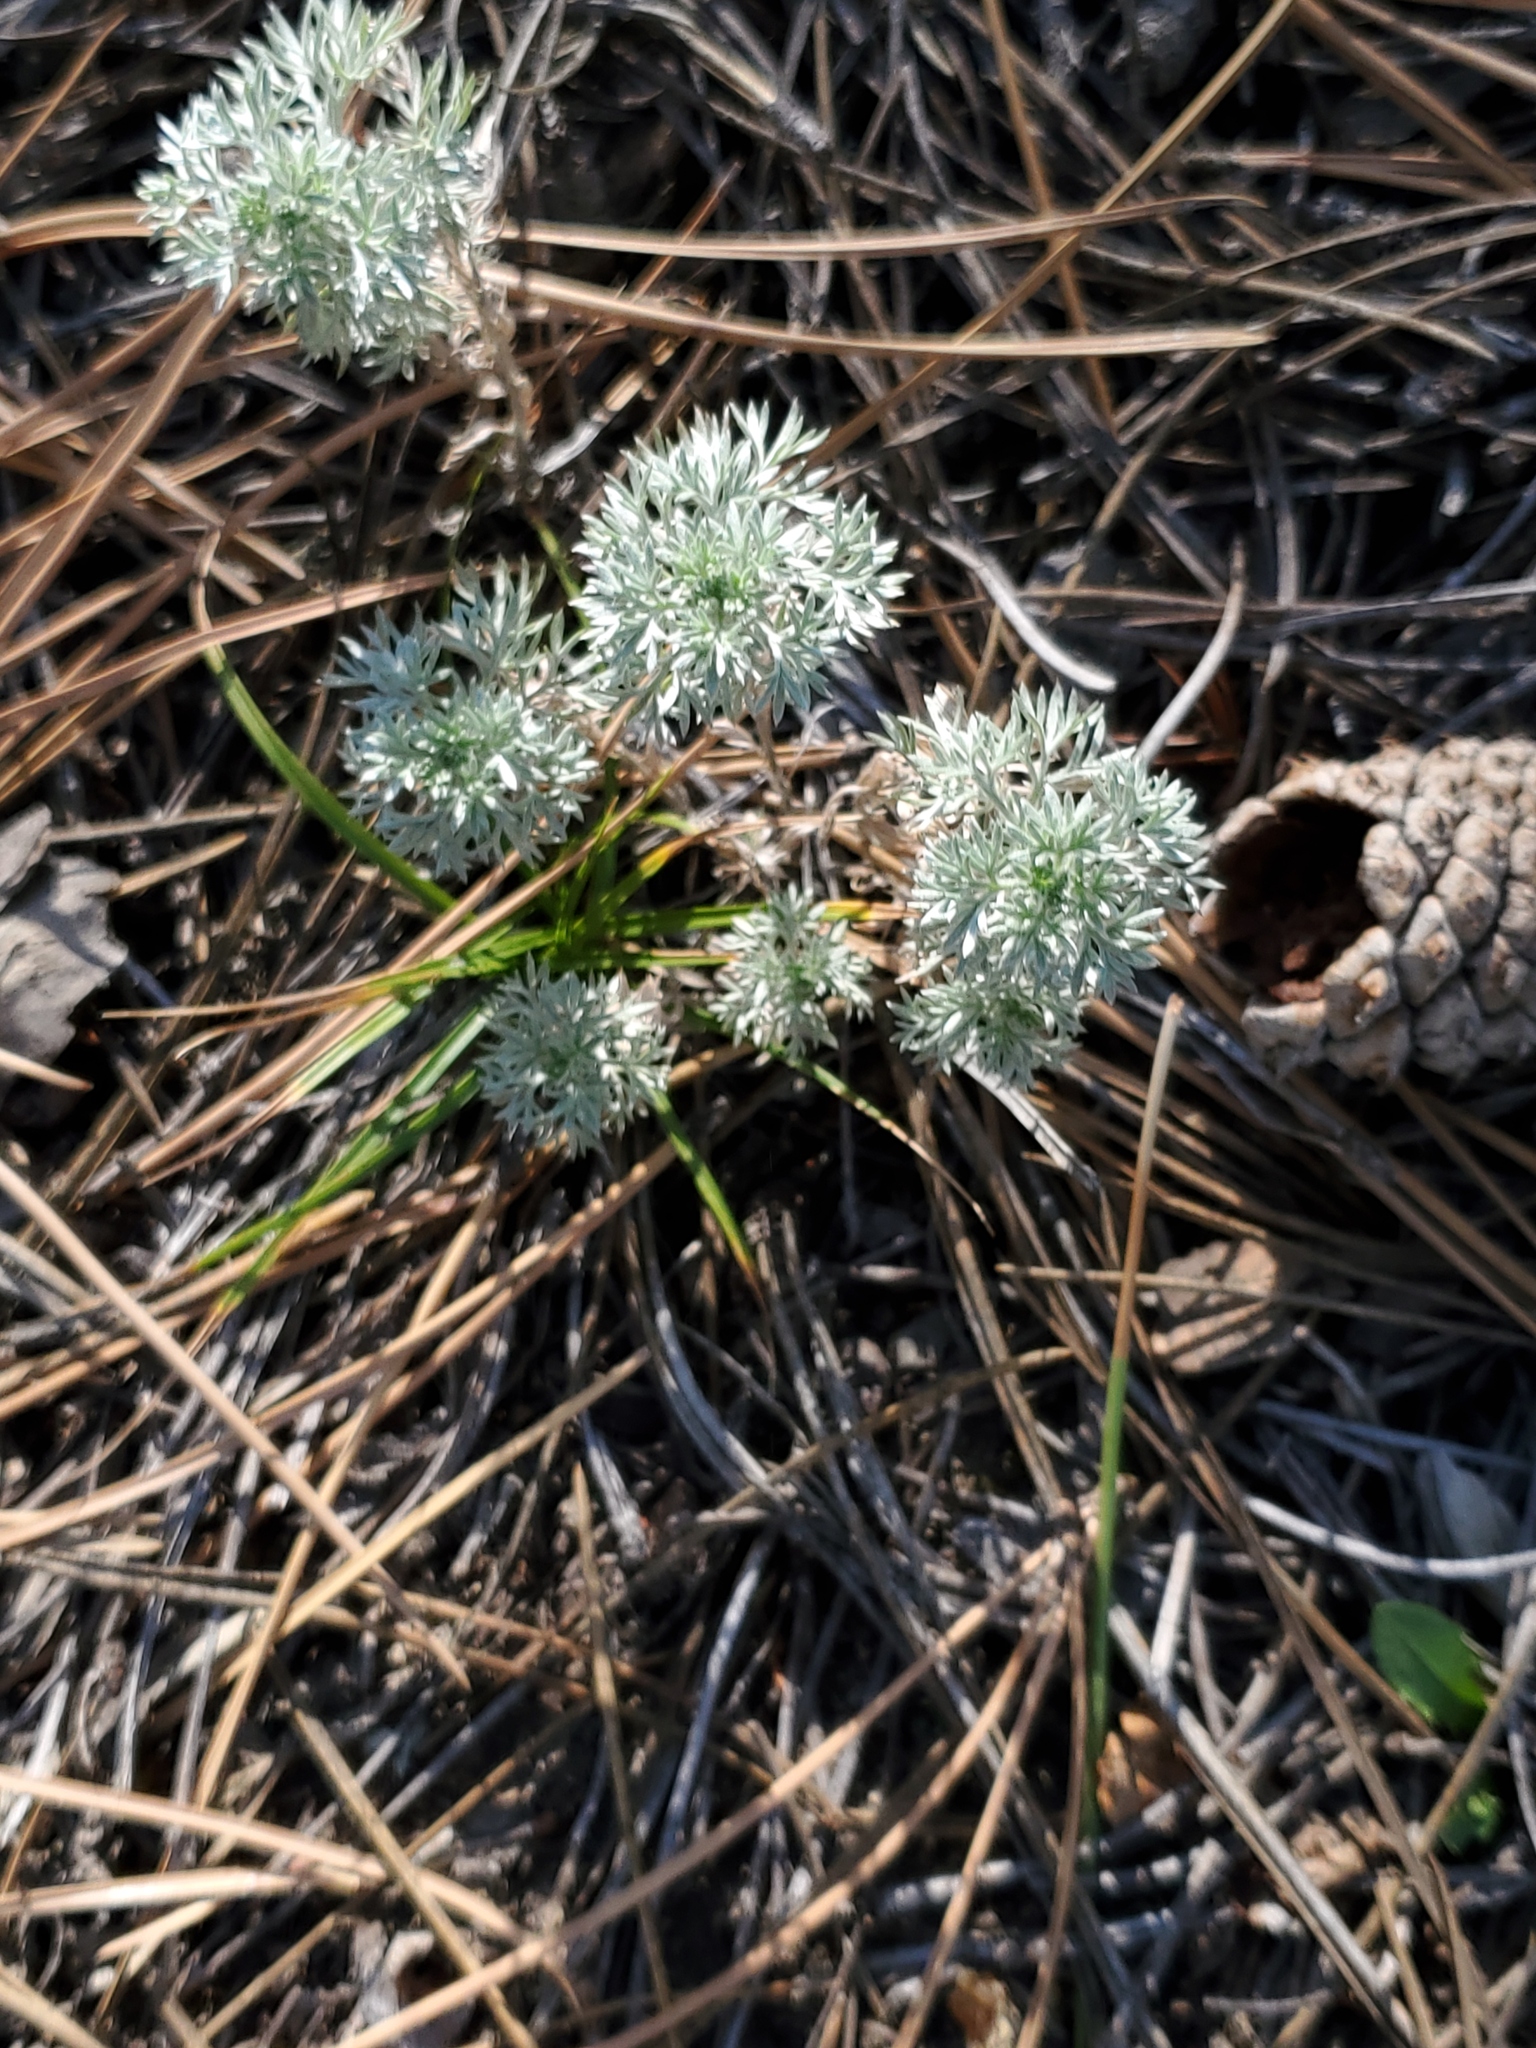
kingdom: Plantae
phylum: Tracheophyta
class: Magnoliopsida
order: Asterales
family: Asteraceae
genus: Artemisia
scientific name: Artemisia frigida
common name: Prairie sagewort
